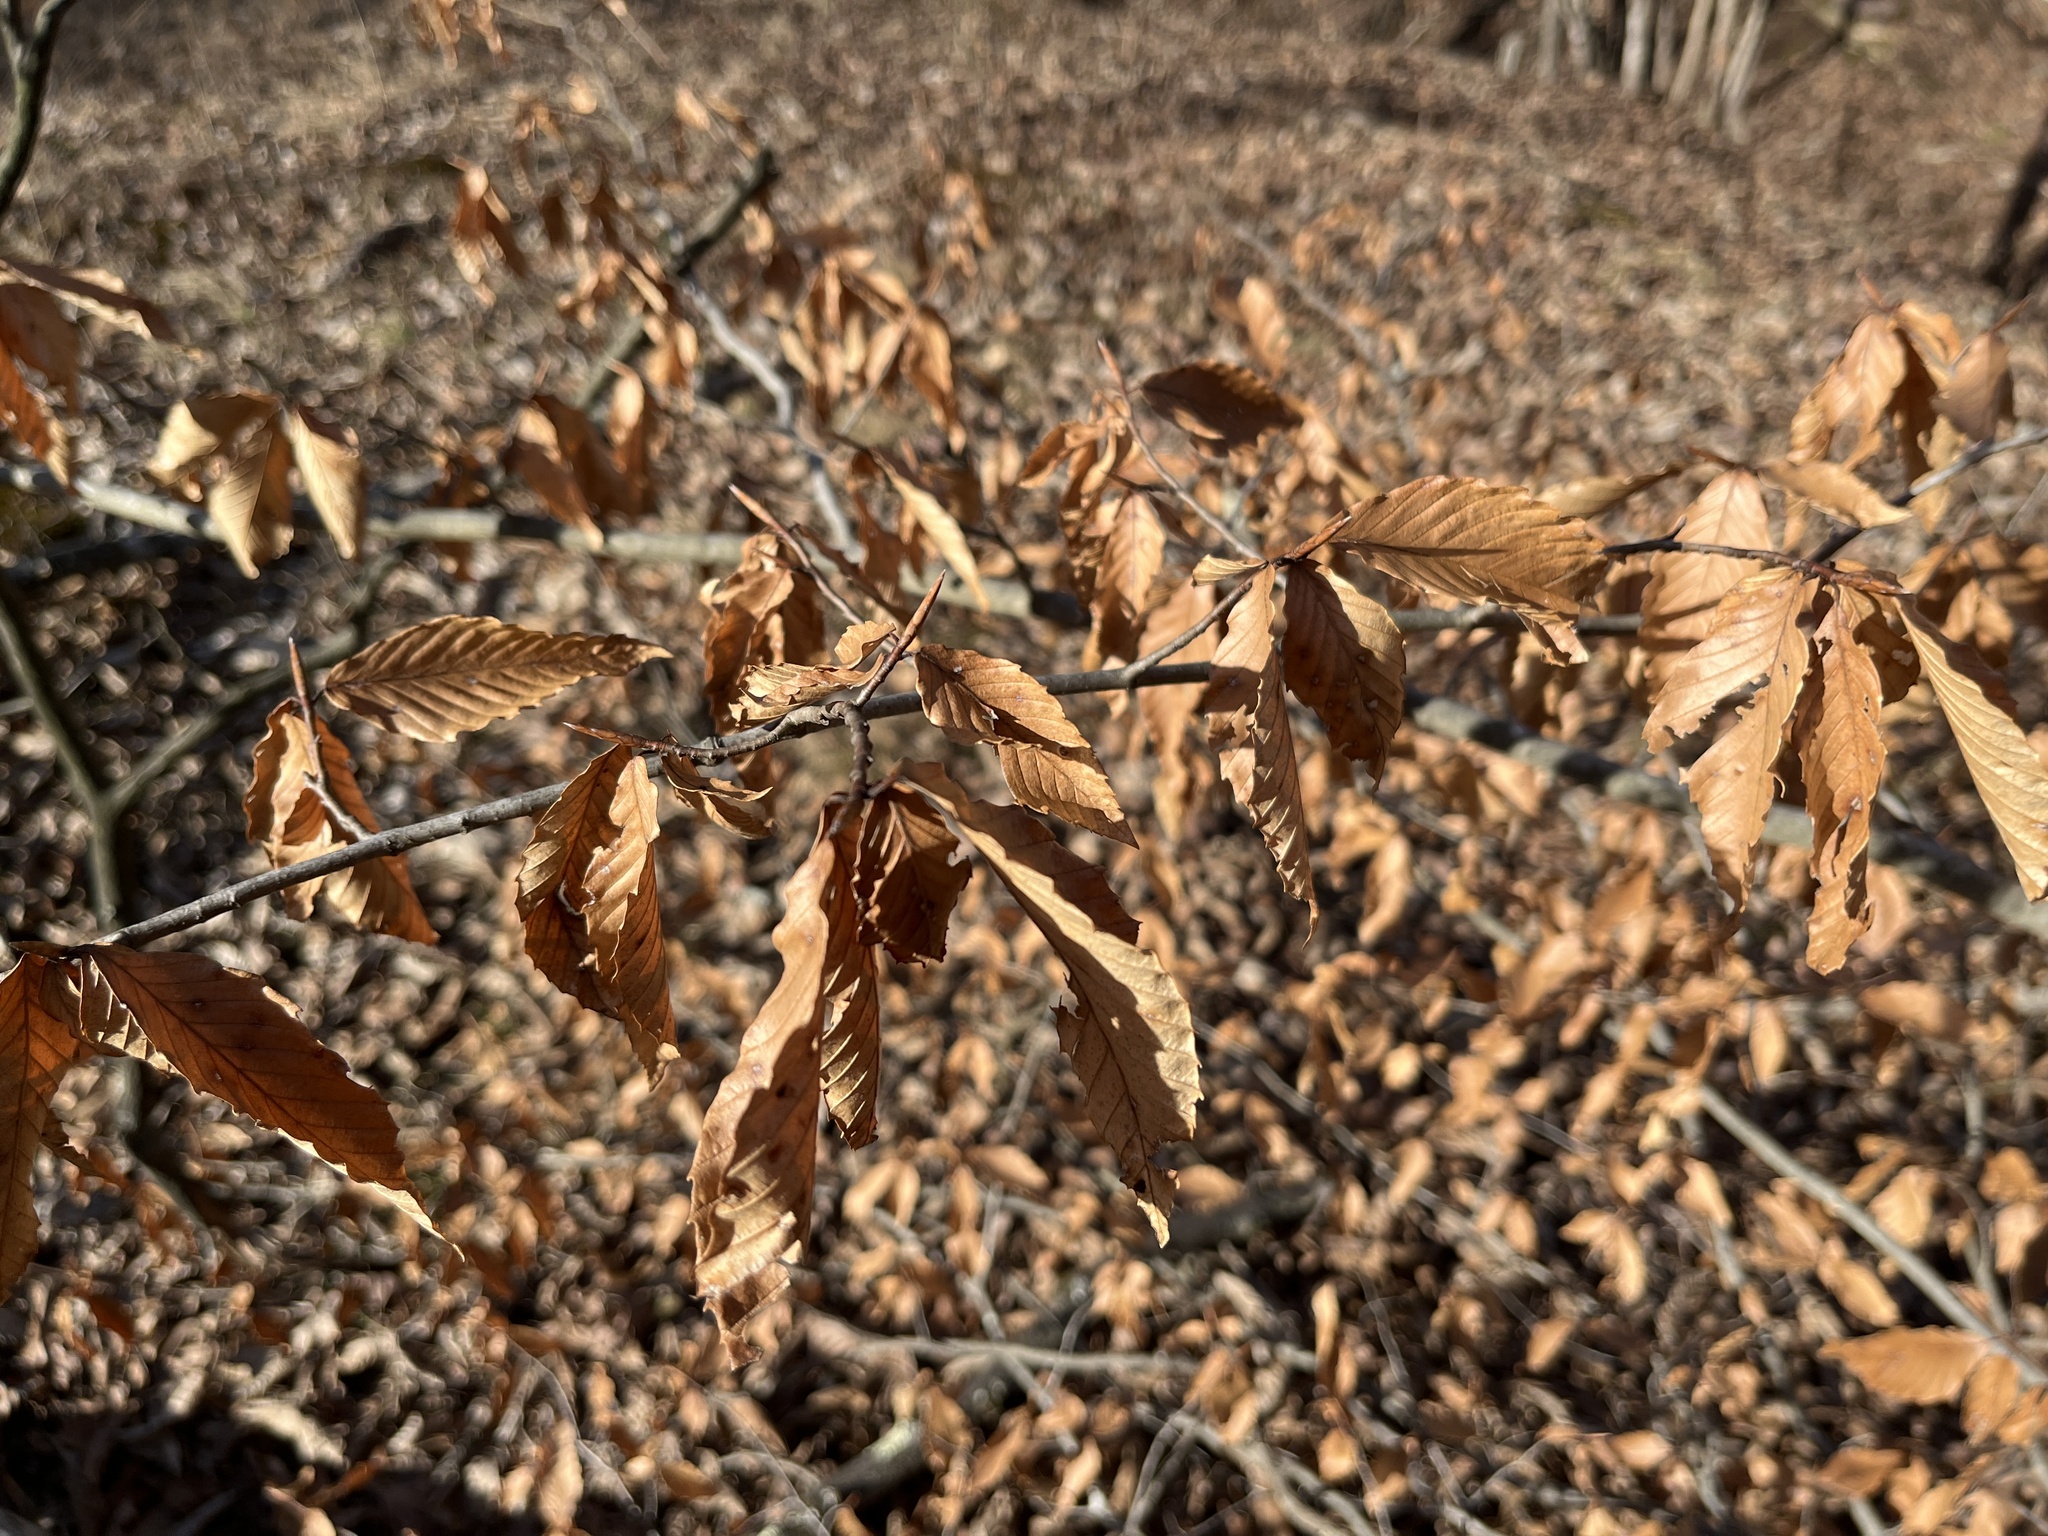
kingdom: Plantae
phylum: Tracheophyta
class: Magnoliopsida
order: Fagales
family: Fagaceae
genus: Fagus
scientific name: Fagus grandifolia
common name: American beech
